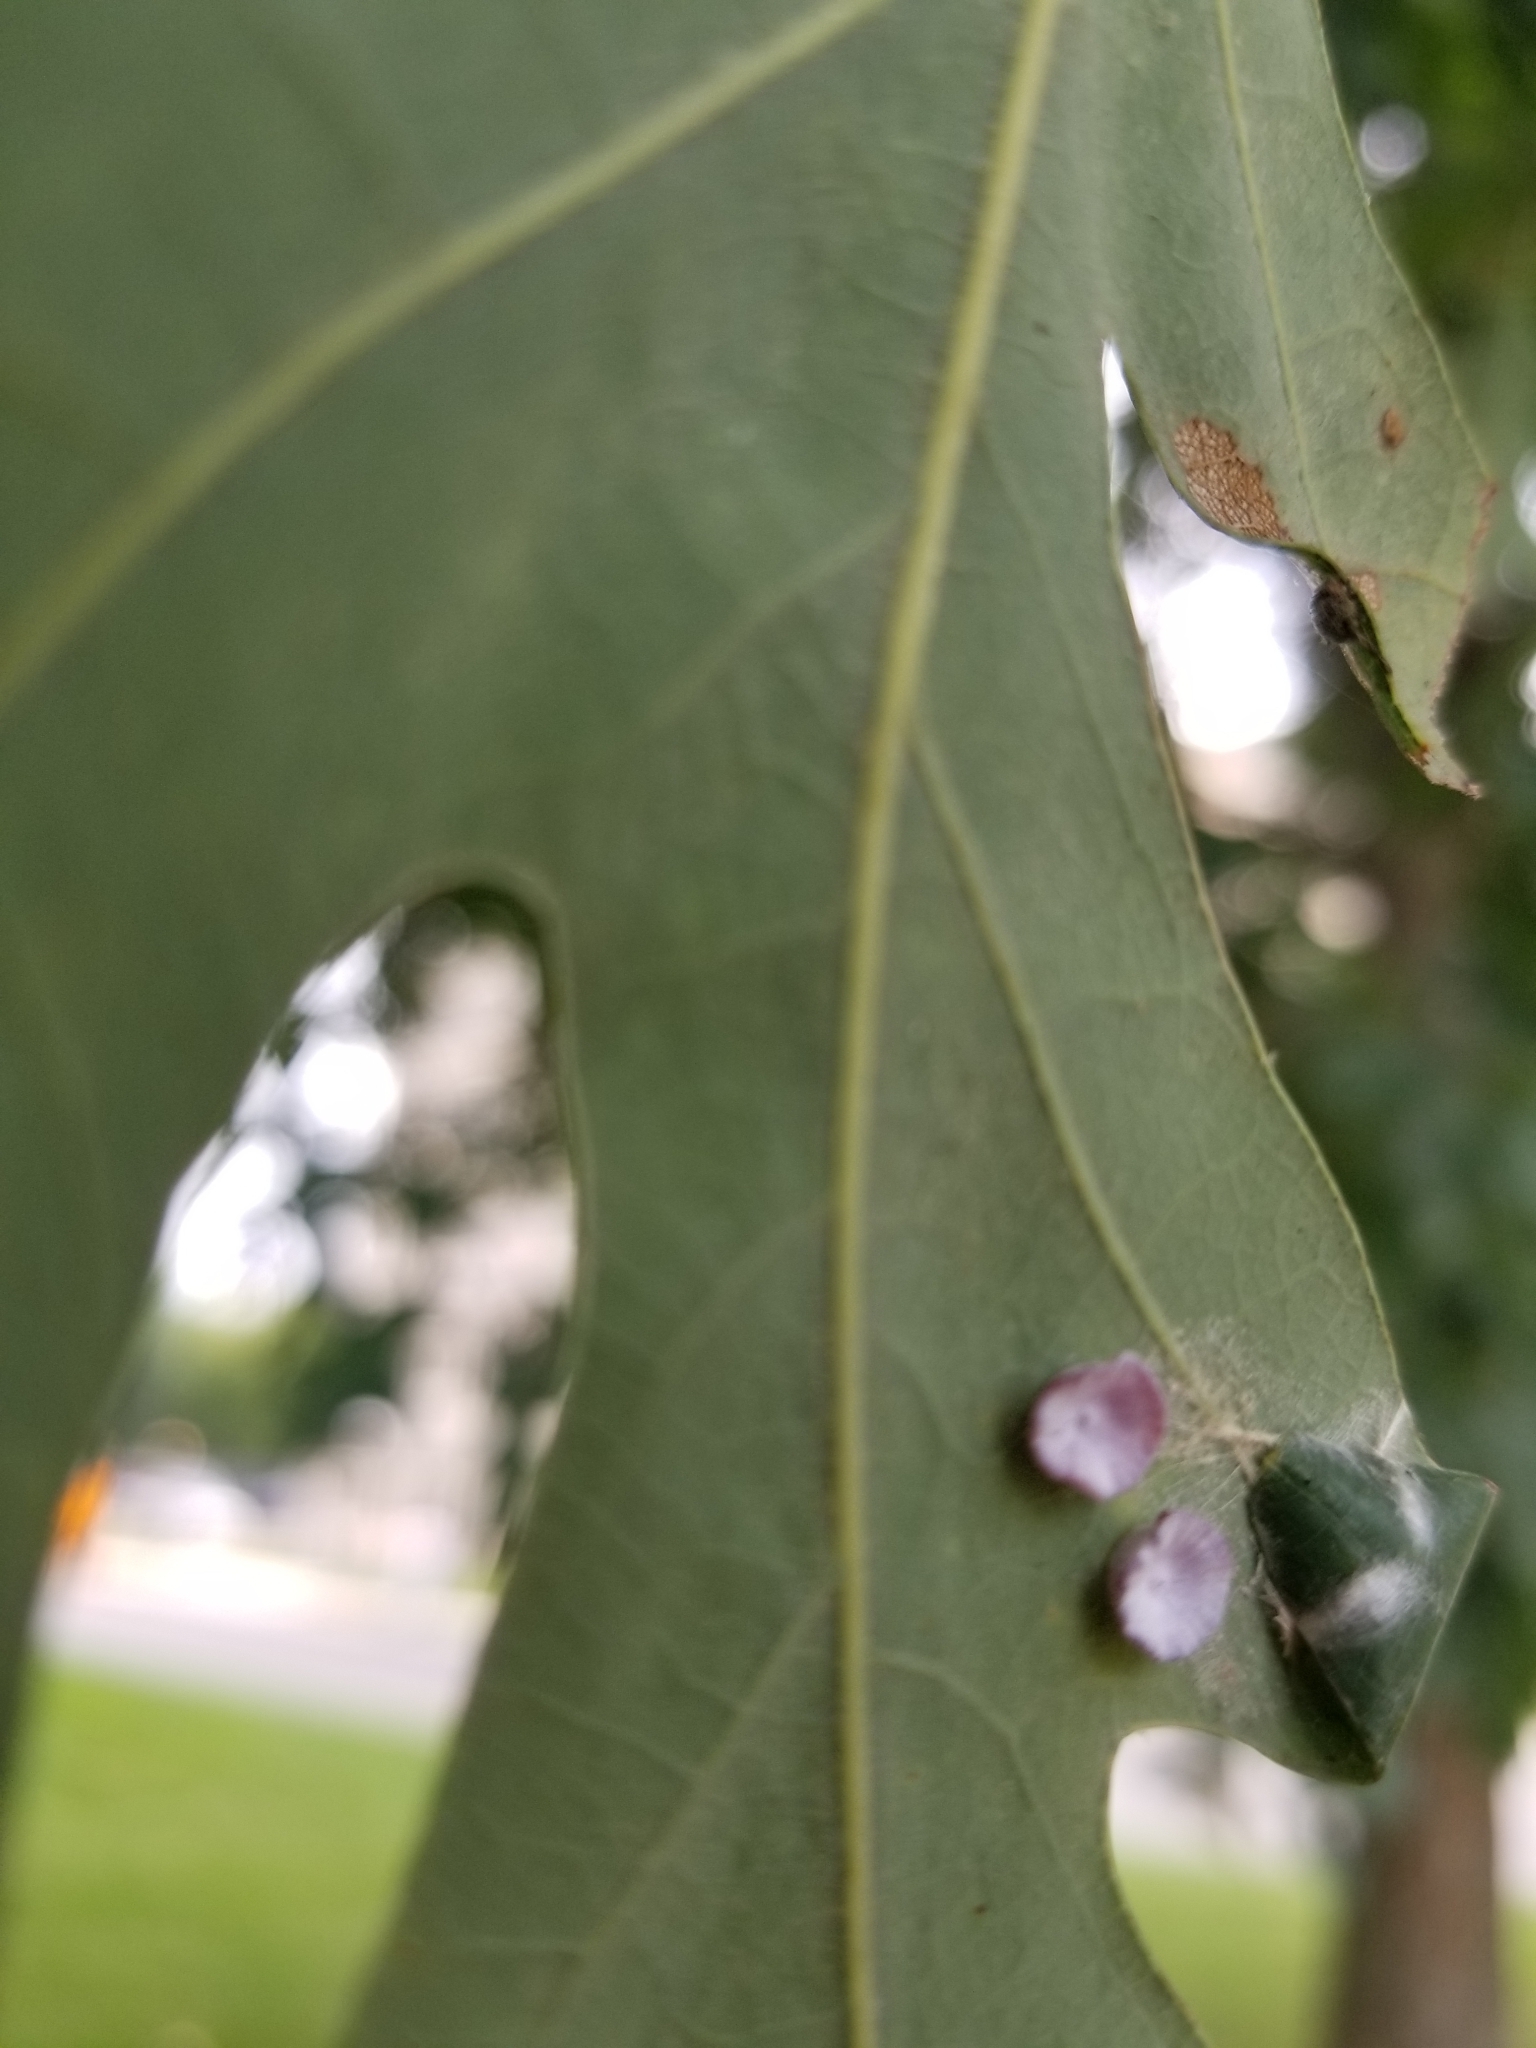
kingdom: Animalia
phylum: Arthropoda
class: Insecta
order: Hymenoptera
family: Cynipidae
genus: Phylloteras
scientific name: Phylloteras poculum
